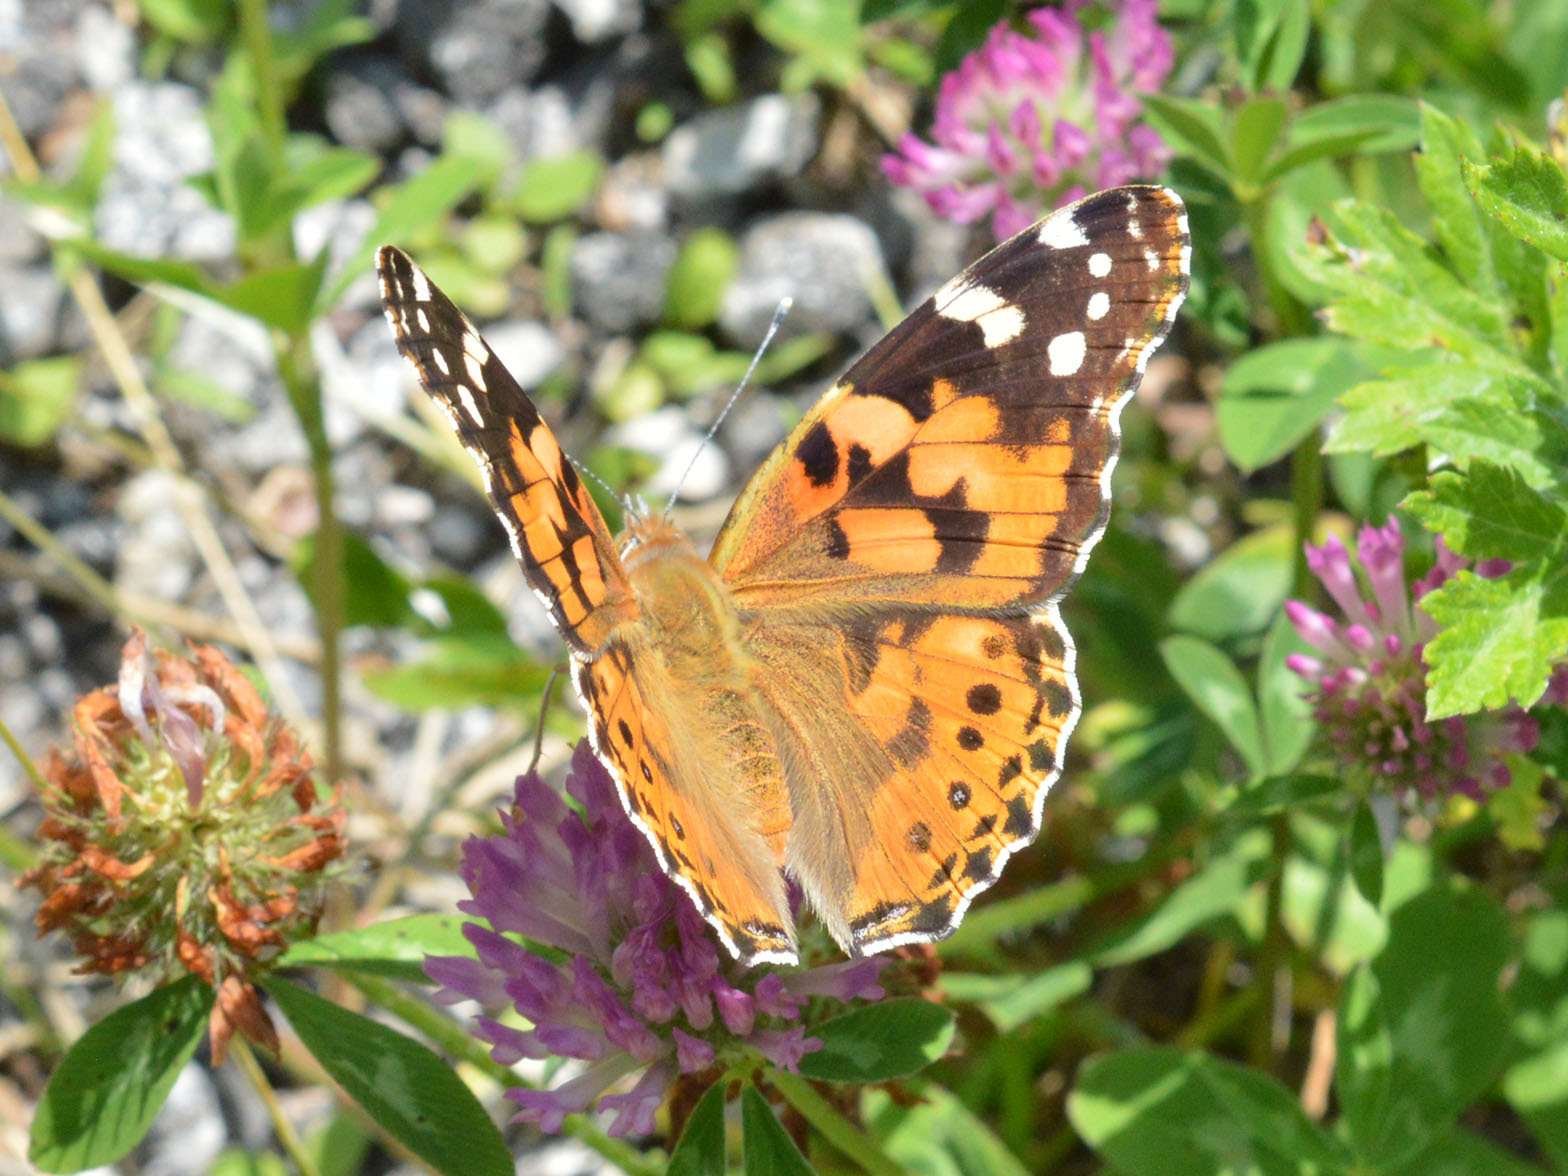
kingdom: Animalia
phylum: Arthropoda
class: Insecta
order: Lepidoptera
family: Nymphalidae
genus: Vanessa
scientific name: Vanessa cardui
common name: Painted lady
